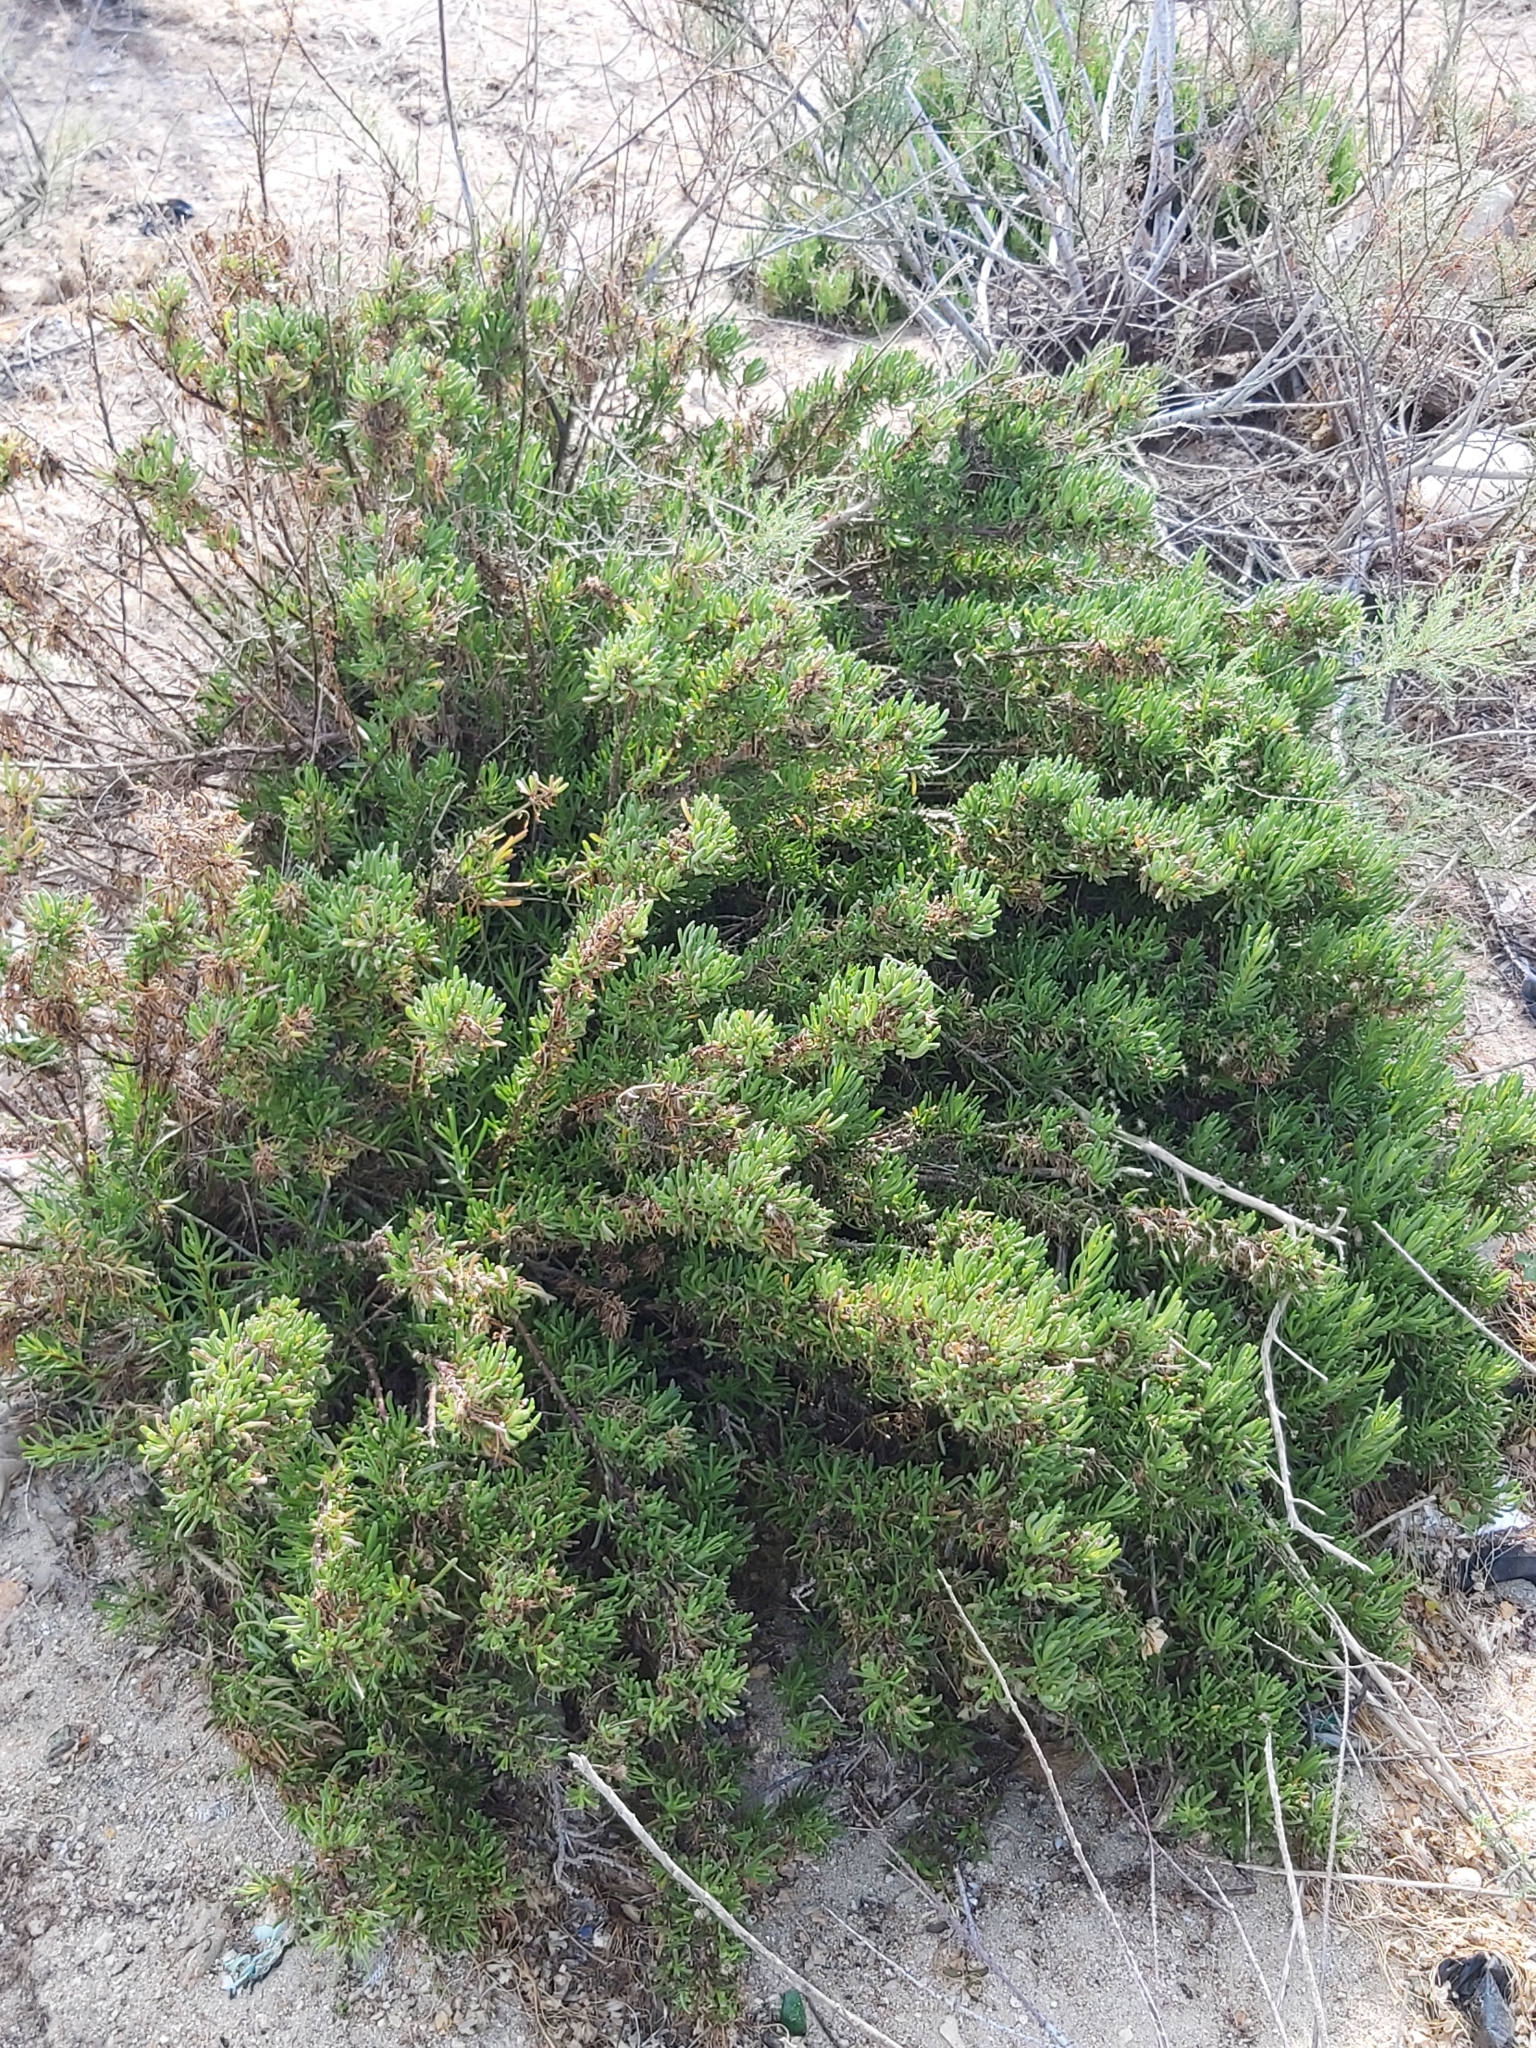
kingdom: Plantae
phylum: Tracheophyta
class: Magnoliopsida
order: Asterales
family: Asteraceae
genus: Limbarda
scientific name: Limbarda crithmoides
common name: Golden samphire
